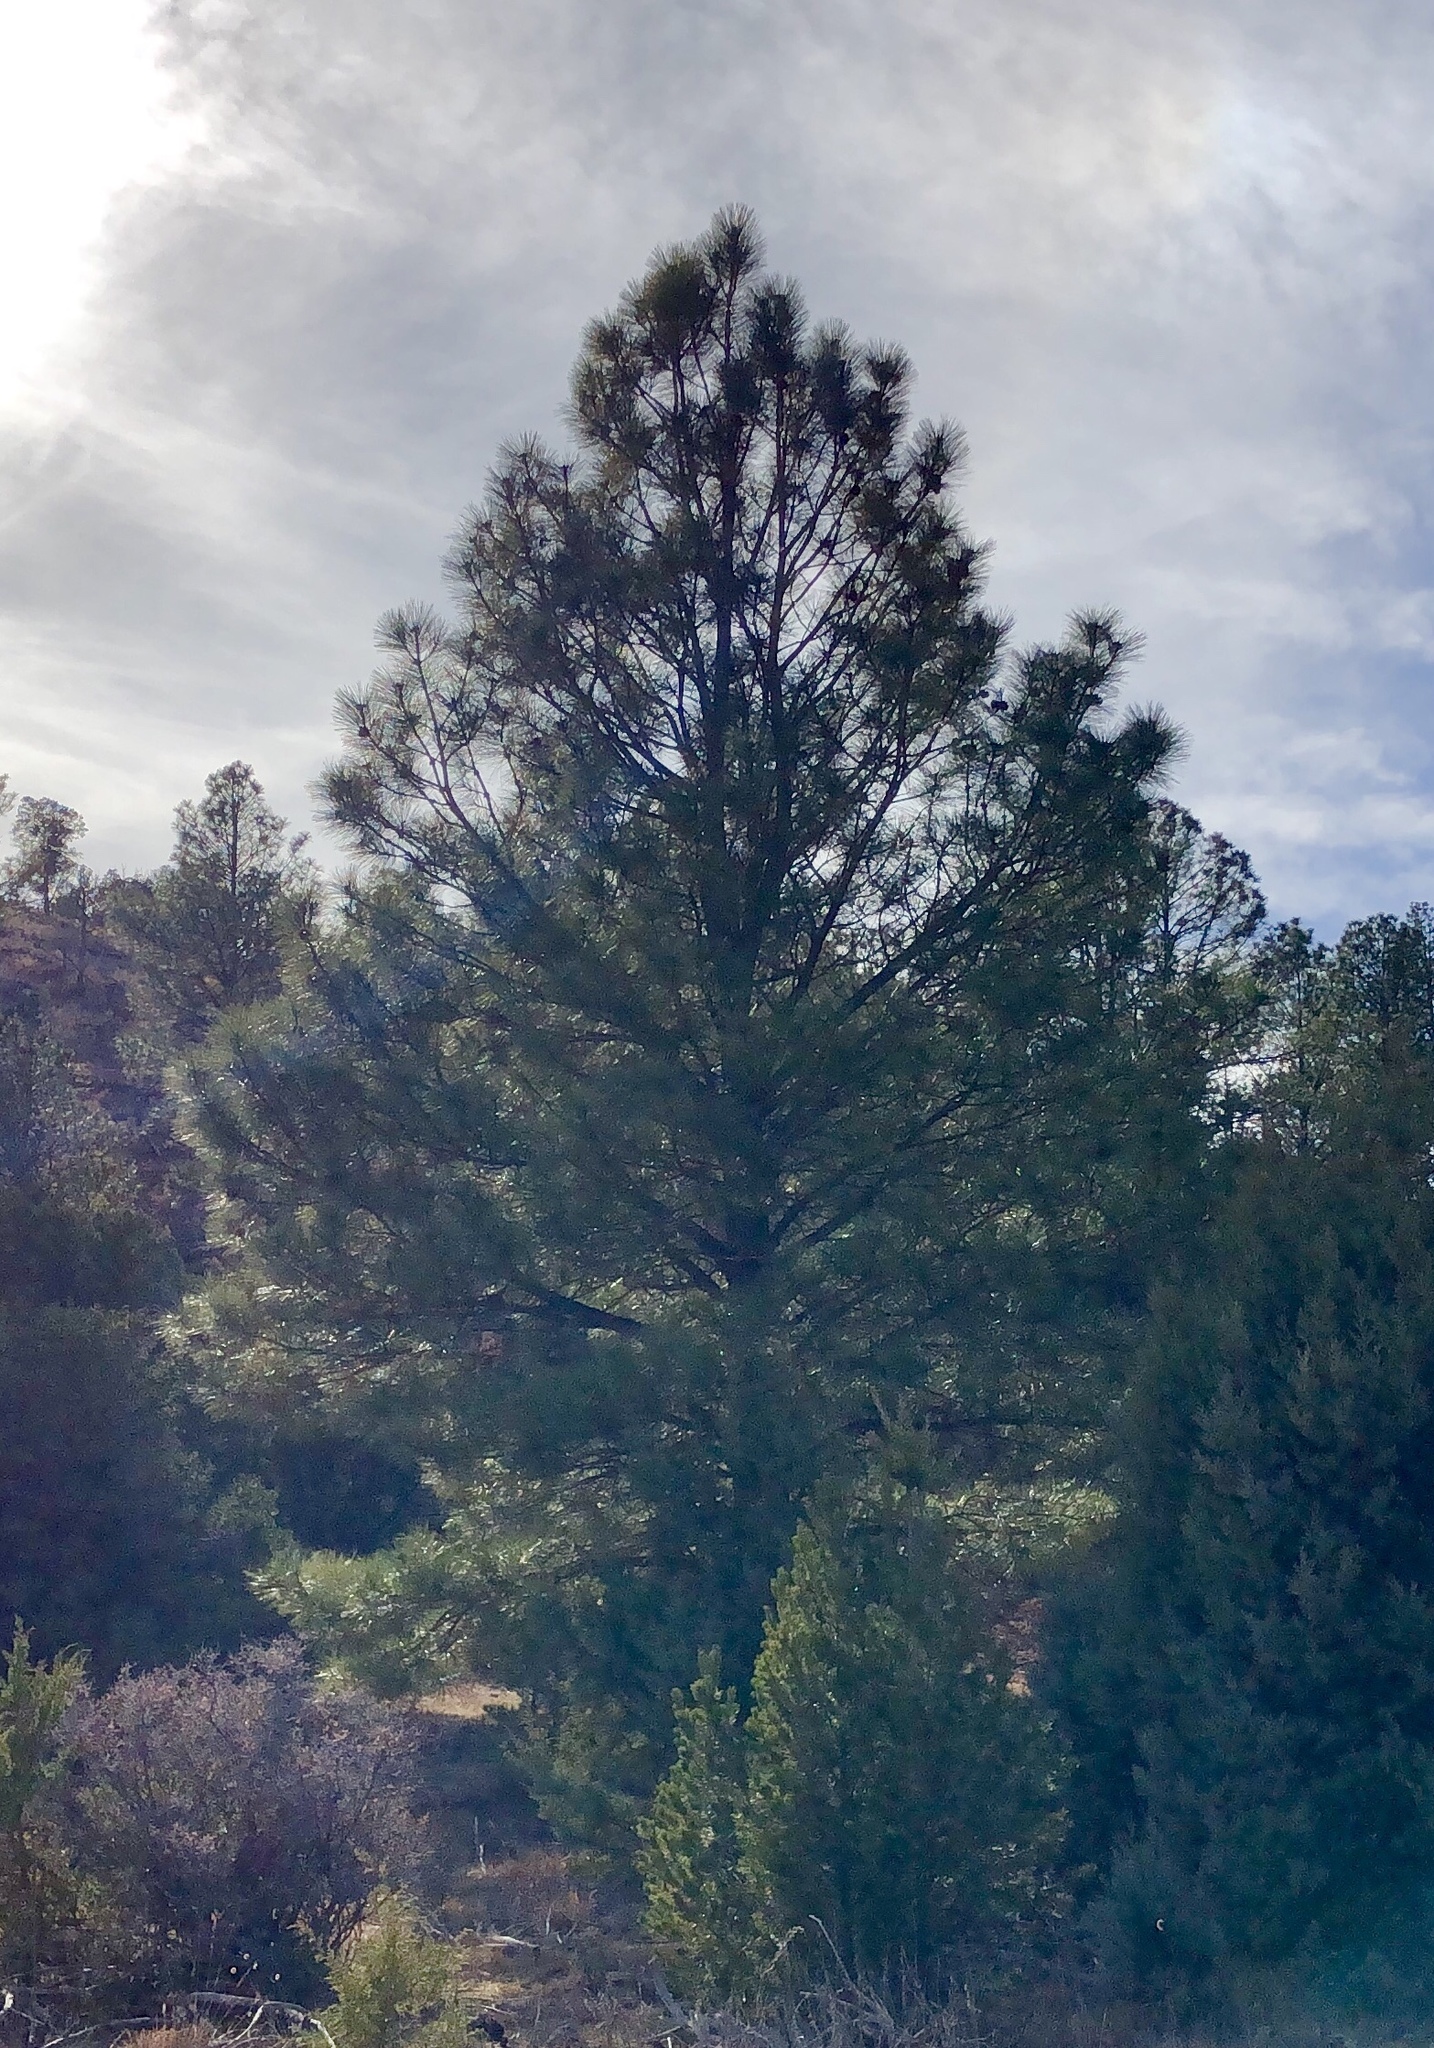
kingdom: Plantae
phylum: Tracheophyta
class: Pinopsida
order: Pinales
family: Pinaceae
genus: Pinus
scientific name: Pinus ponderosa
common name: Western yellow-pine
